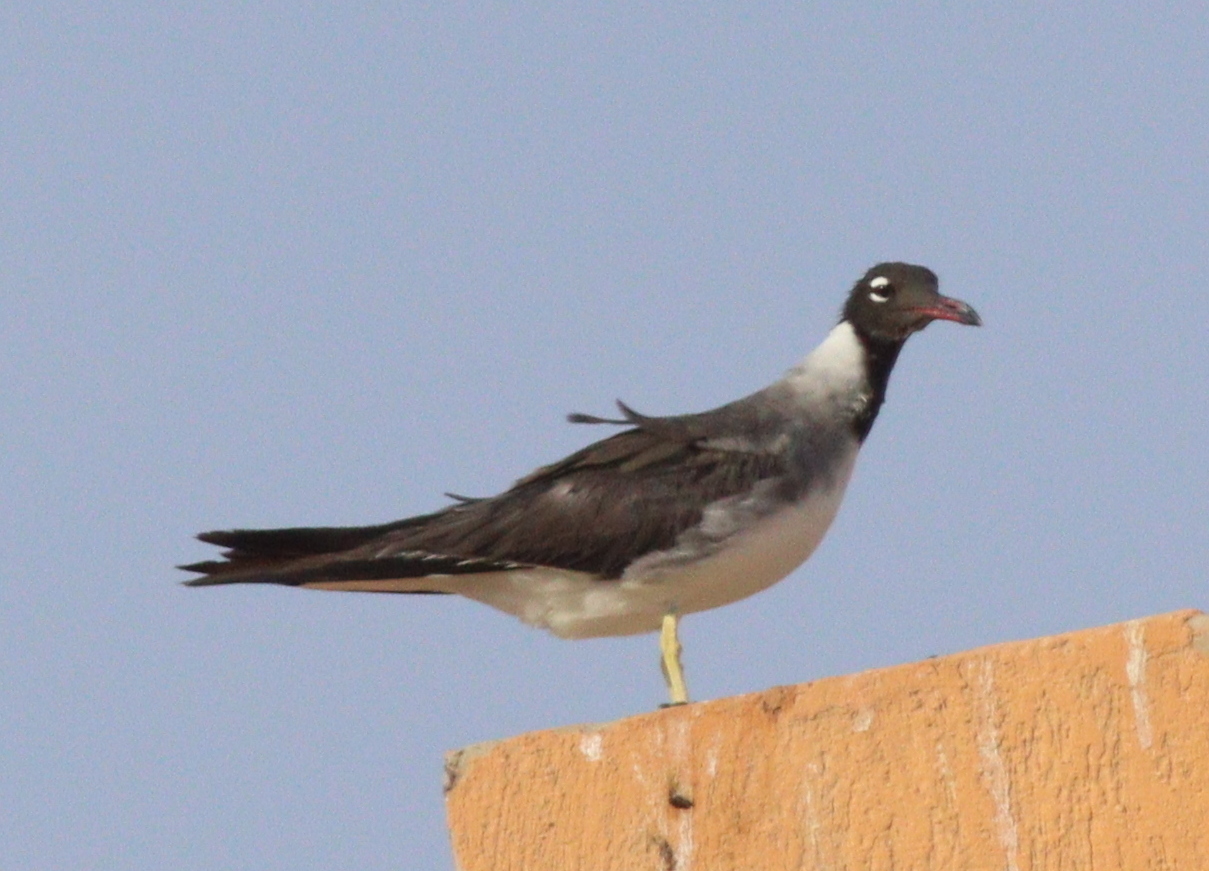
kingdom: Animalia
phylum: Chordata
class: Aves
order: Charadriiformes
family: Laridae
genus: Ichthyaetus
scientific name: Ichthyaetus leucophthalmus
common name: White-eyed gull
